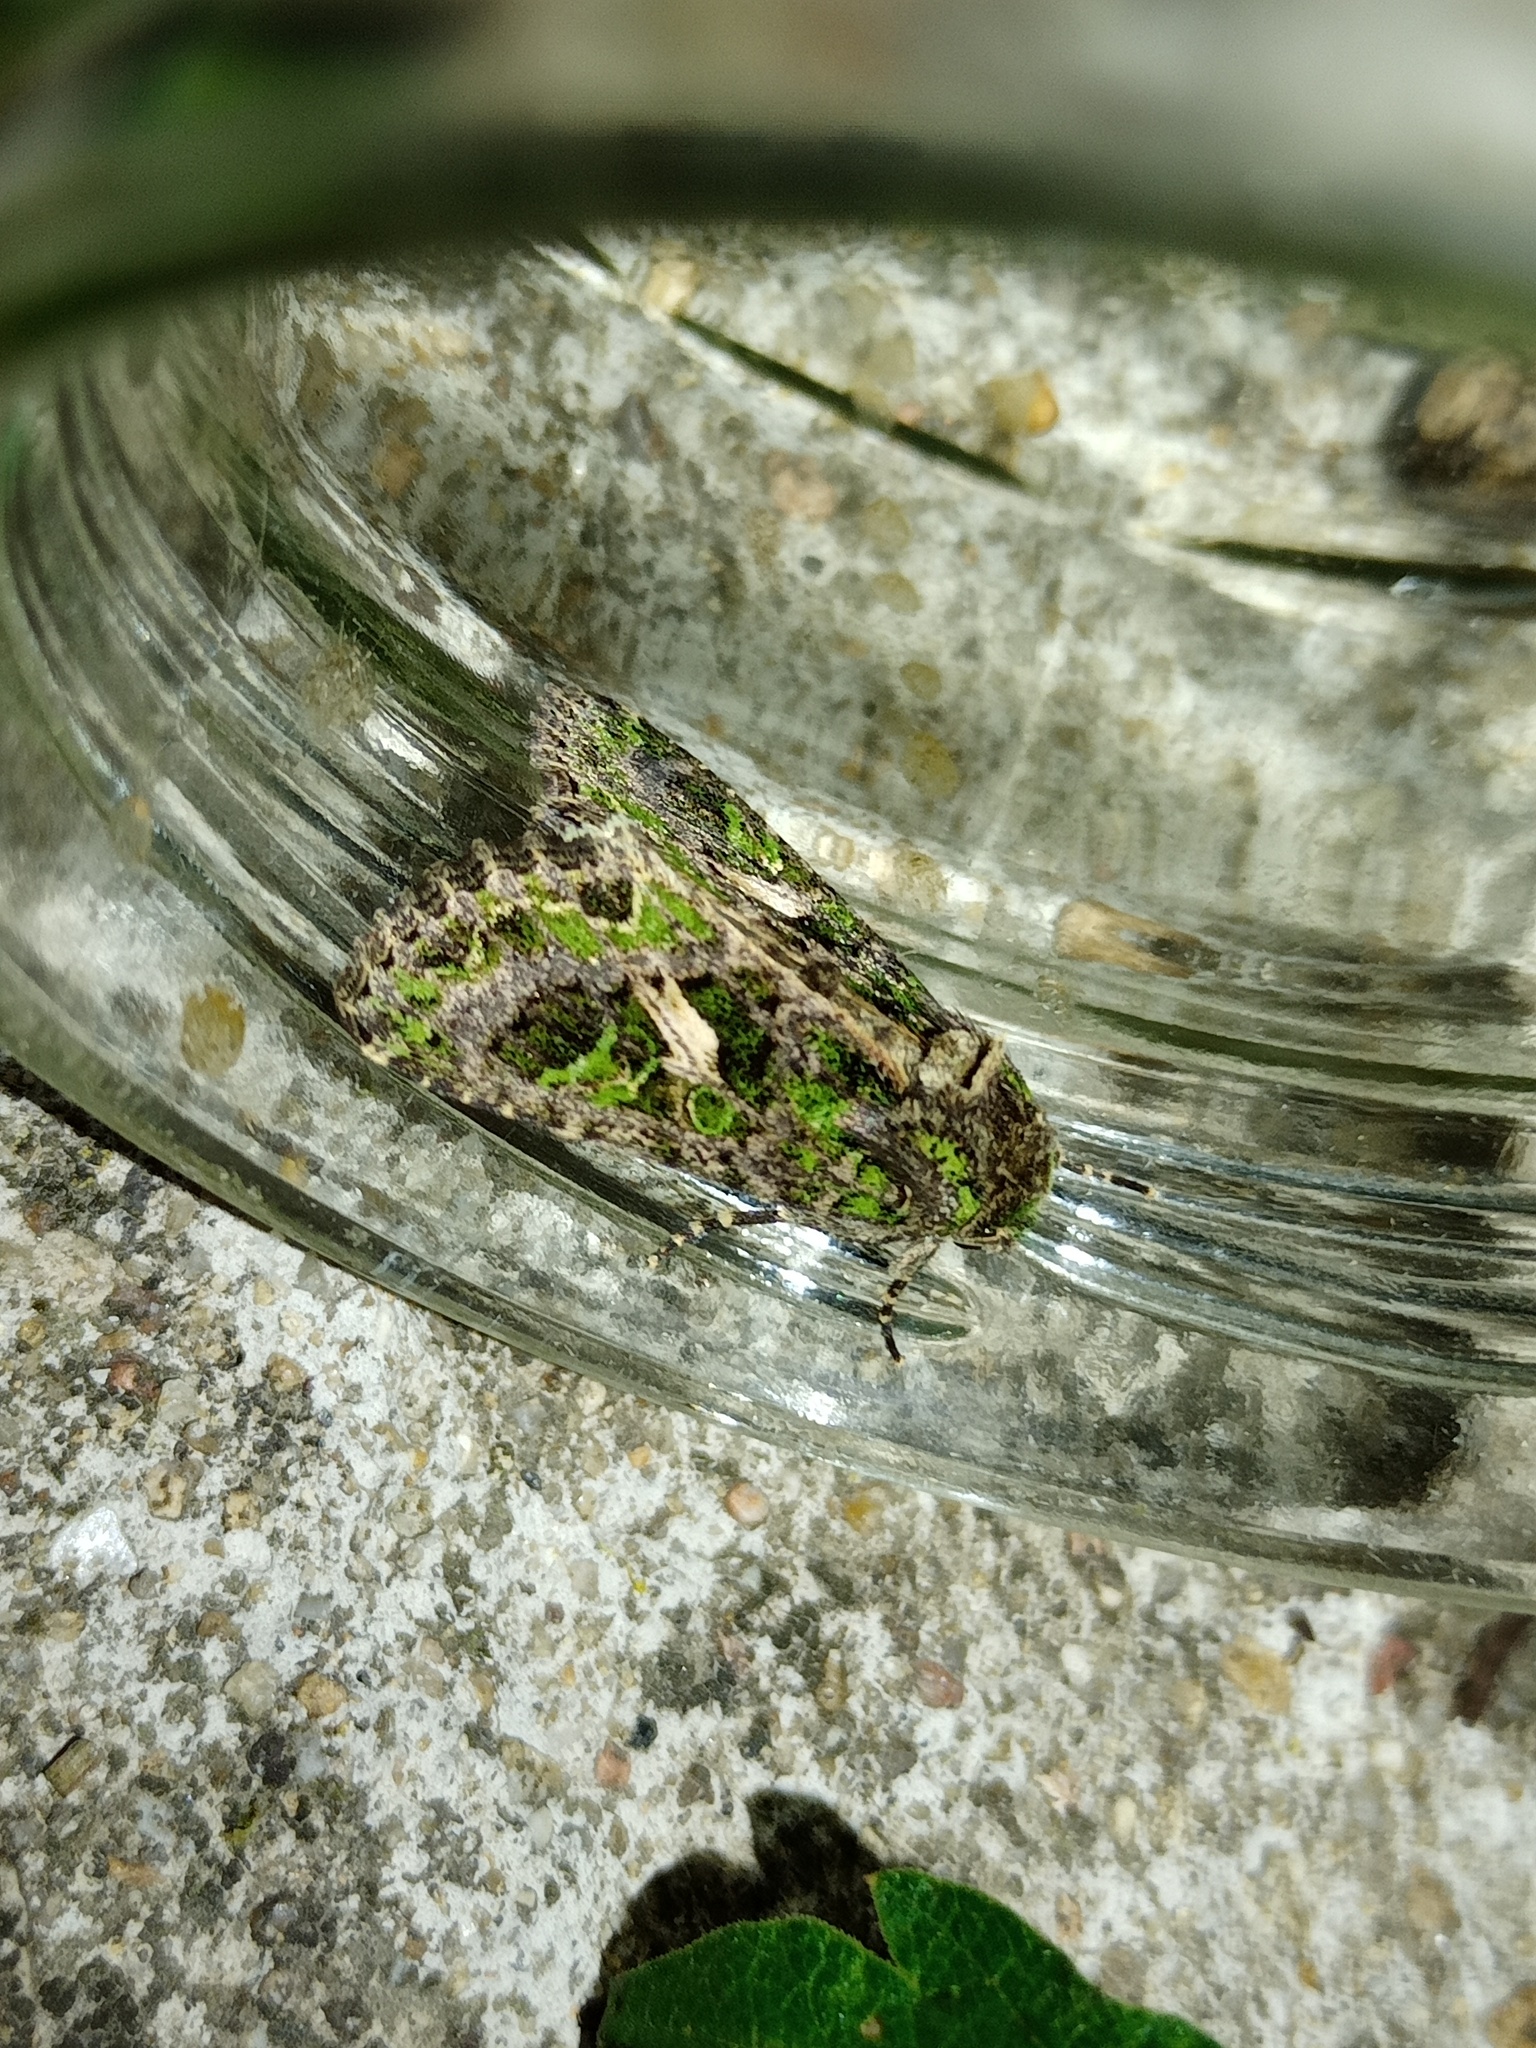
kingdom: Animalia
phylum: Arthropoda
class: Insecta
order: Lepidoptera
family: Noctuidae
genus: Trachea
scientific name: Trachea atriplicis
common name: Orache moth
